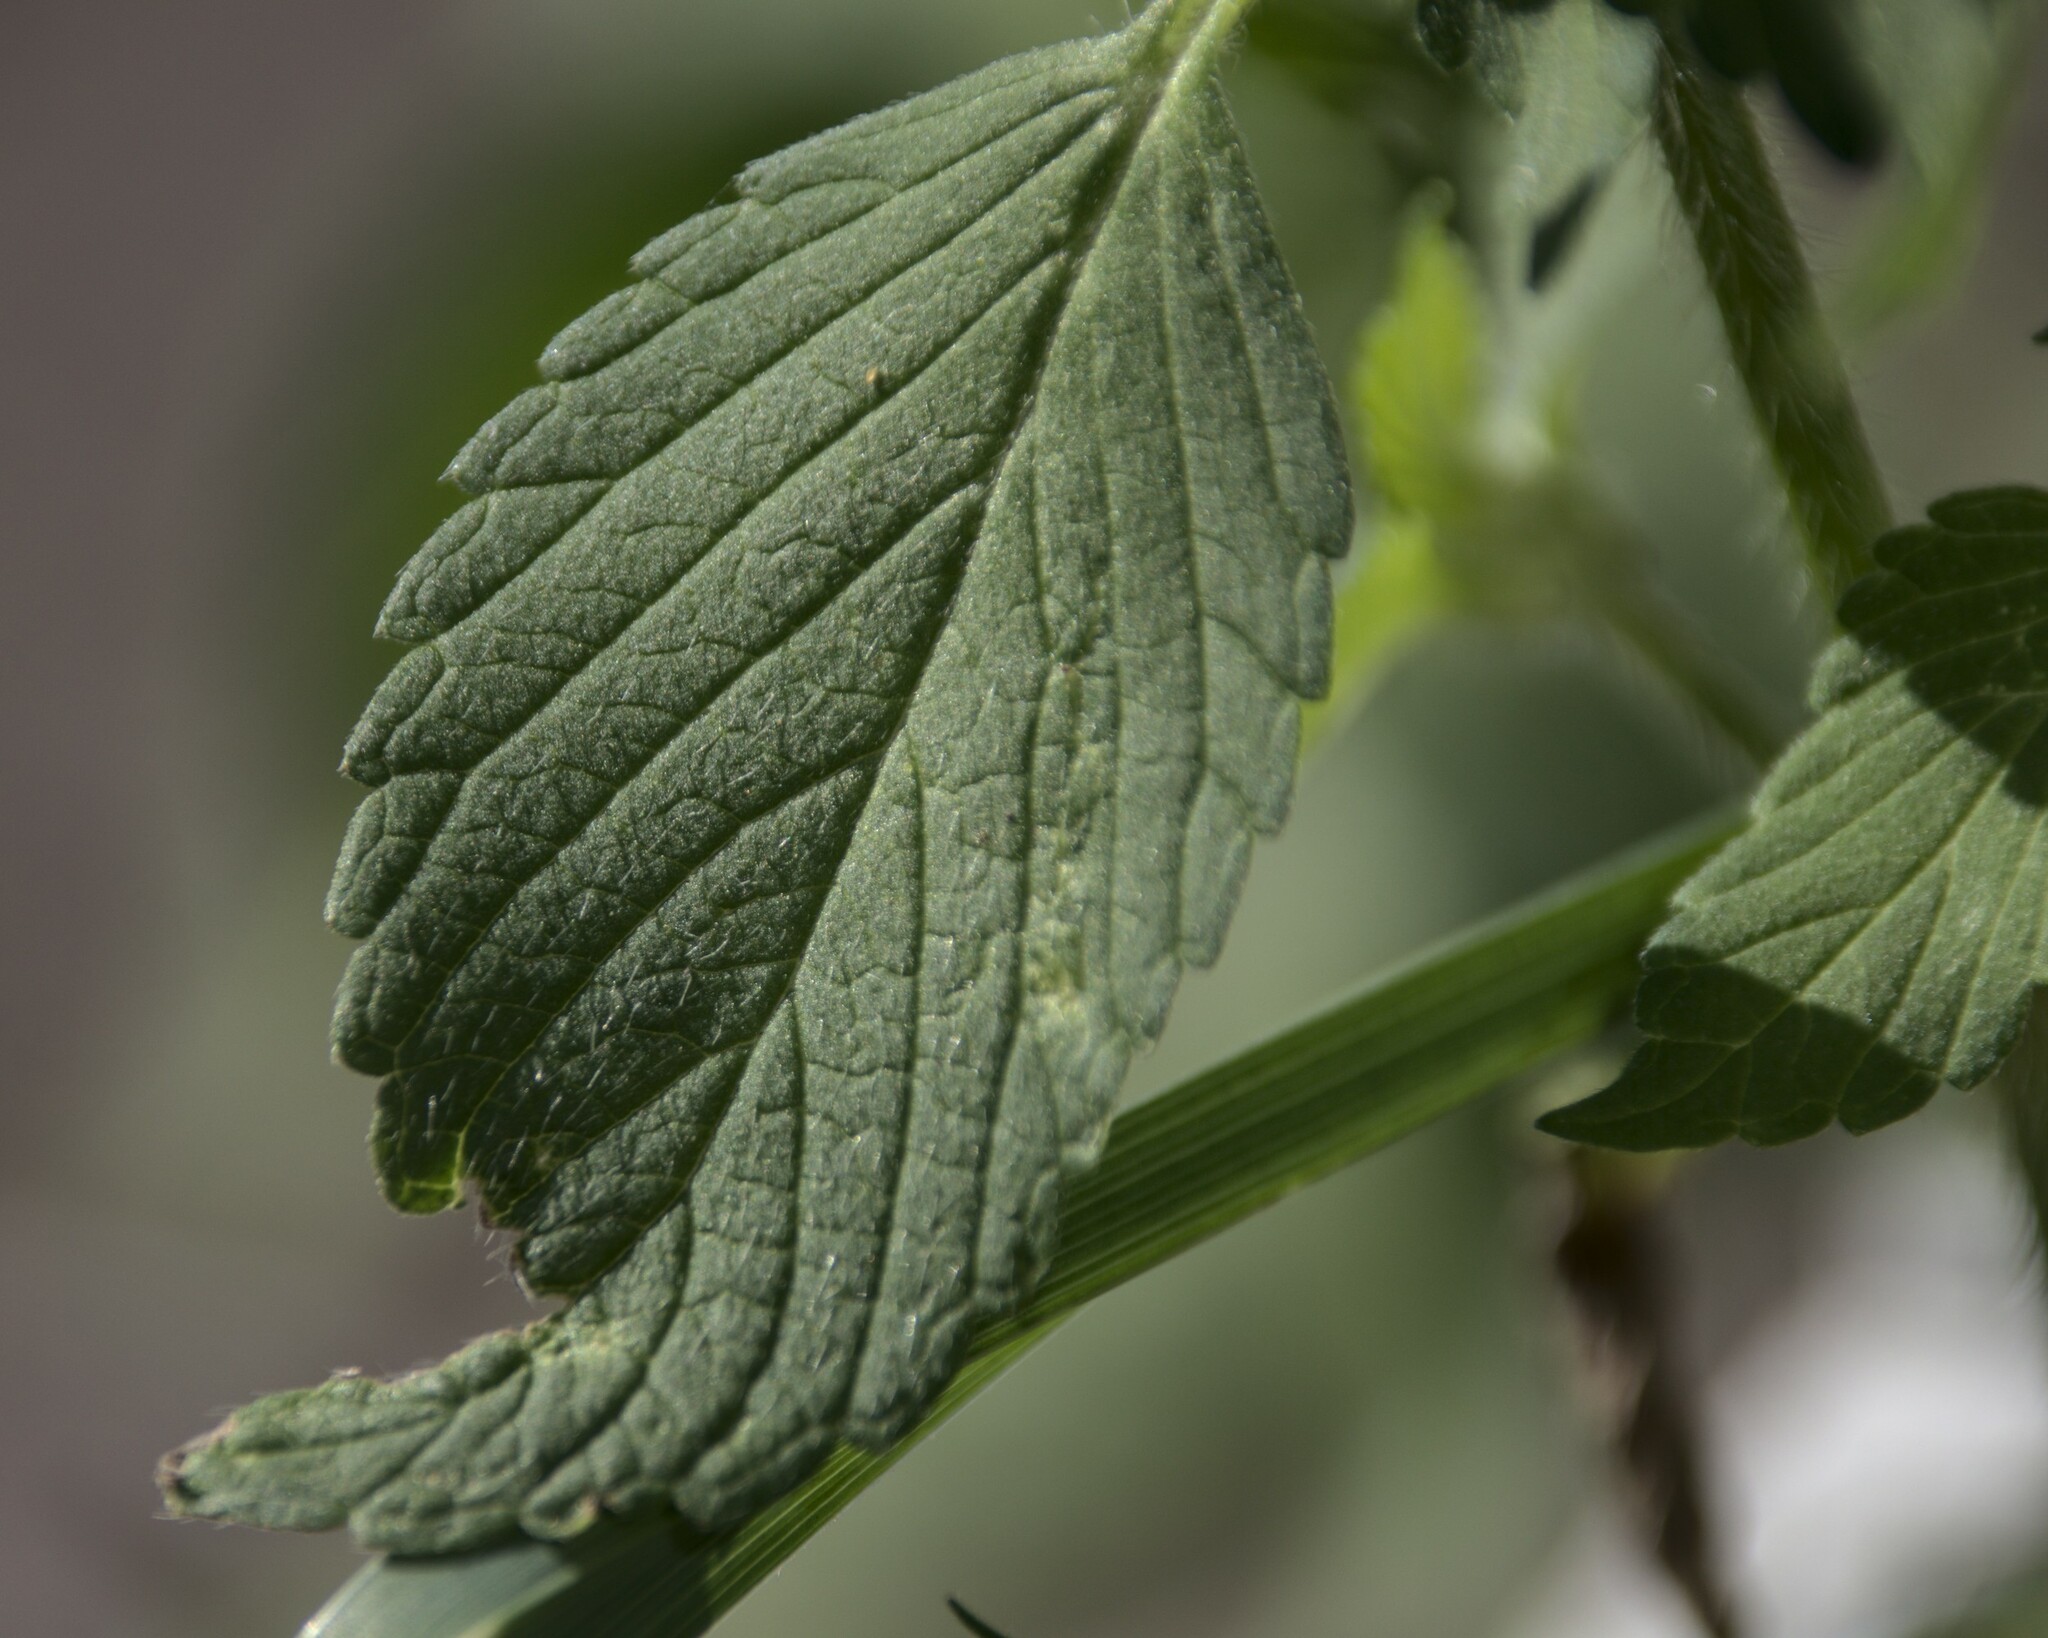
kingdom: Plantae
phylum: Tracheophyta
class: Magnoliopsida
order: Lamiales
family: Lamiaceae
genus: Galeopsis
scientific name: Galeopsis bifida
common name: Bifid hemp-nettle
